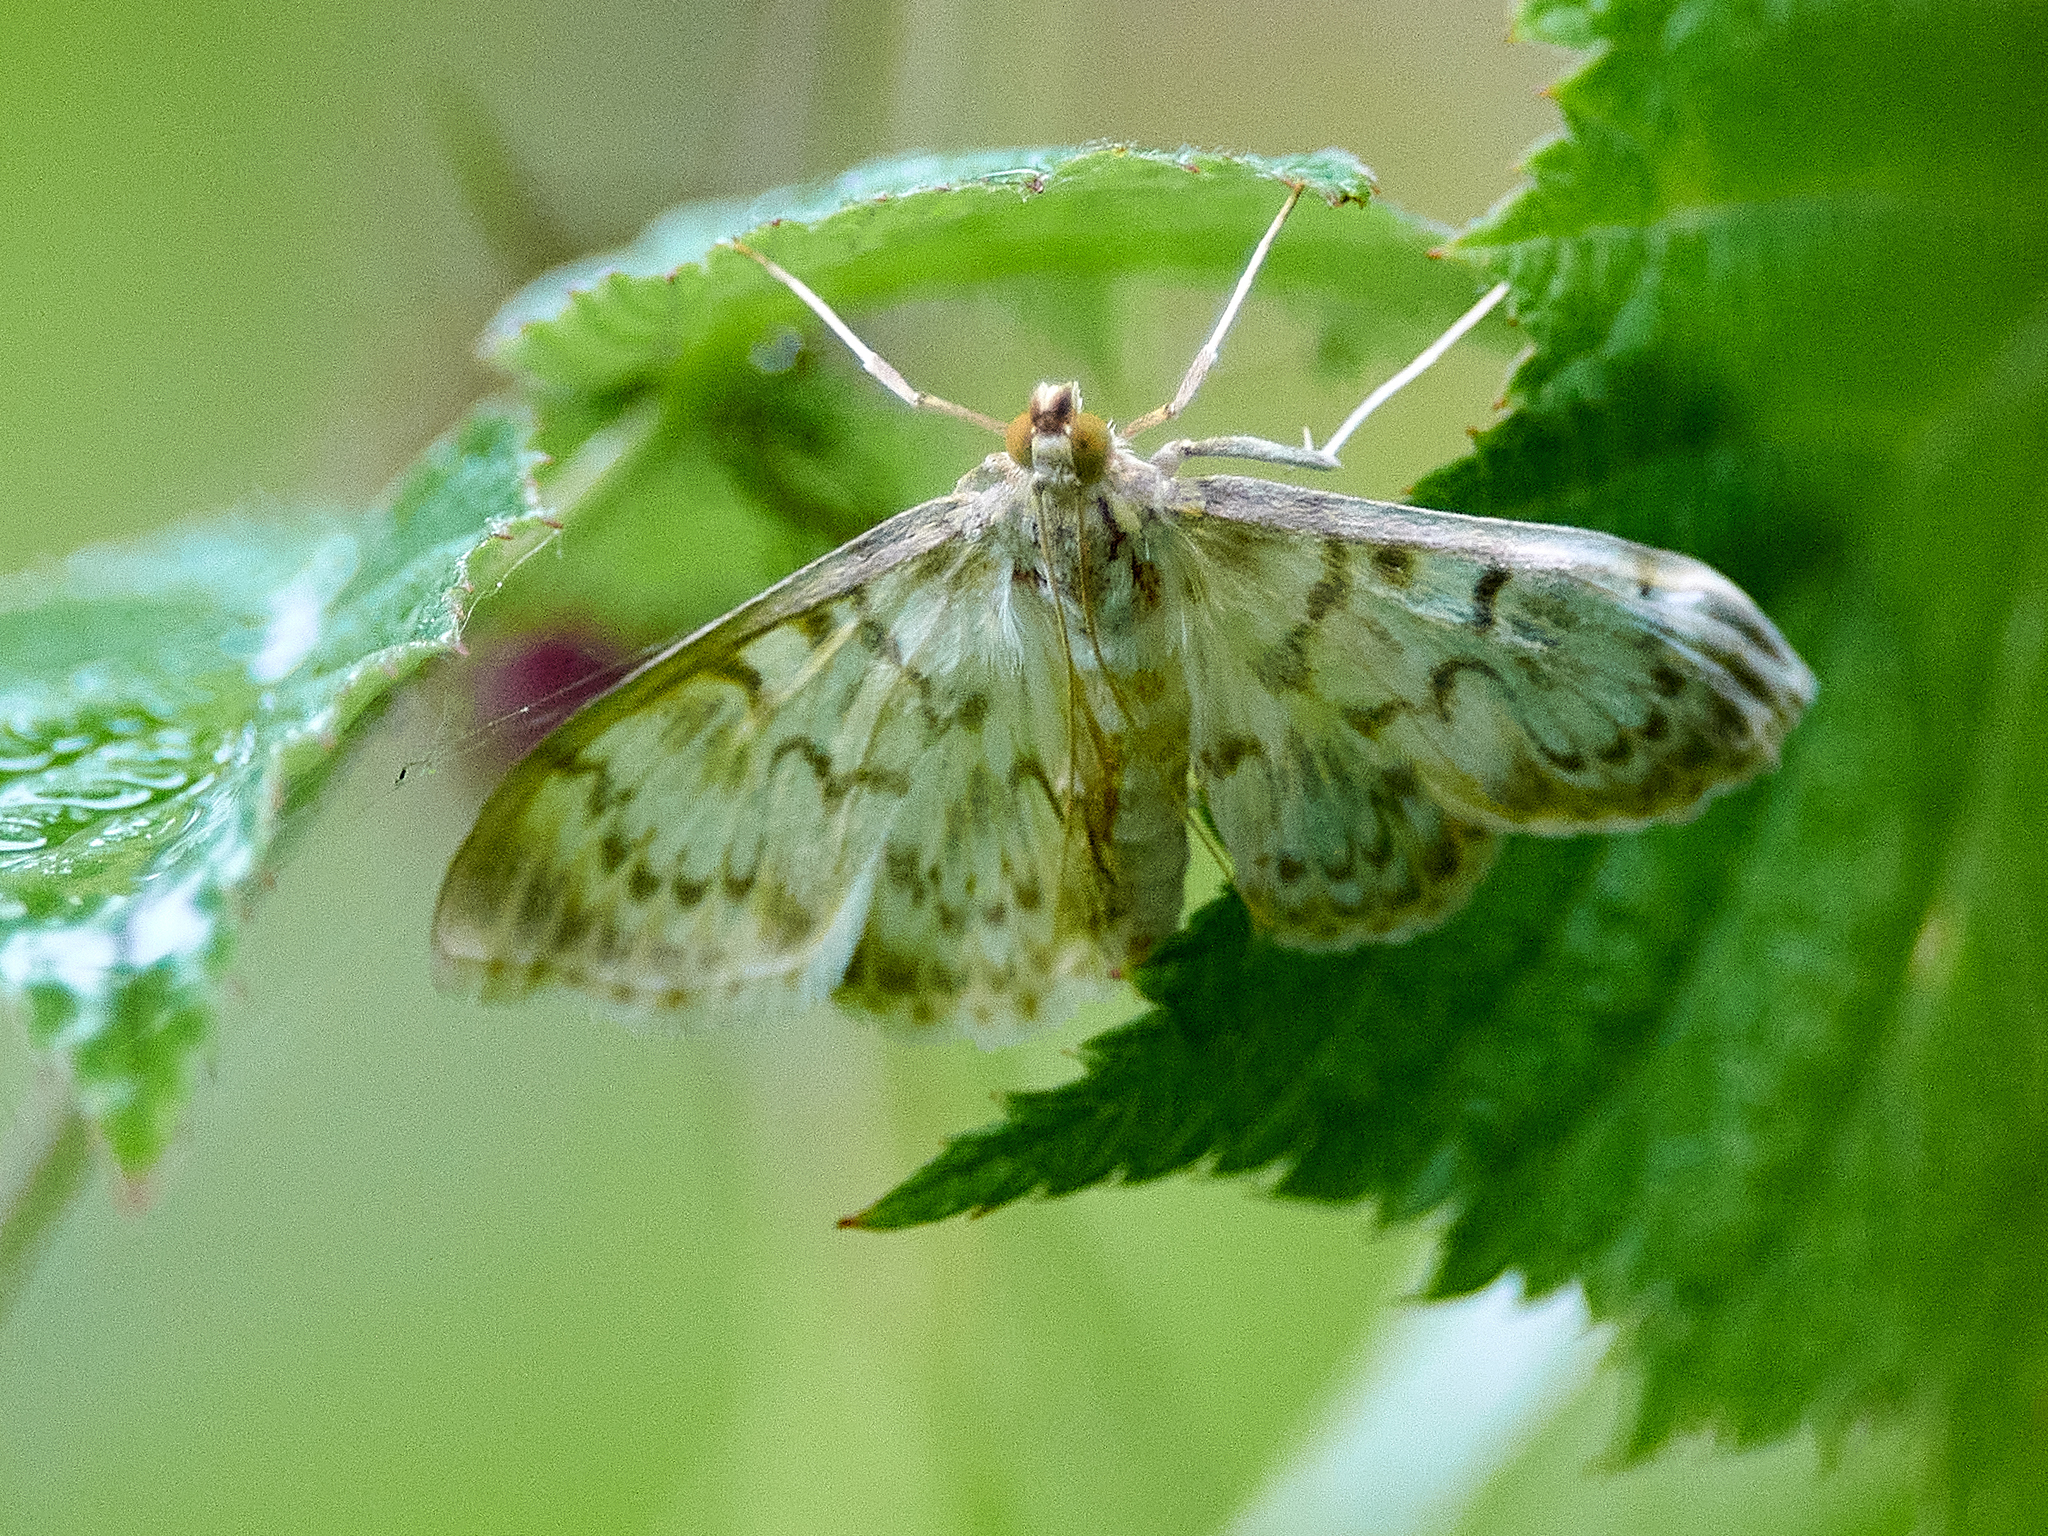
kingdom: Animalia
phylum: Arthropoda
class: Insecta
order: Lepidoptera
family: Crambidae
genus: Patania
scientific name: Patania ruralis
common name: Mother of pearl
